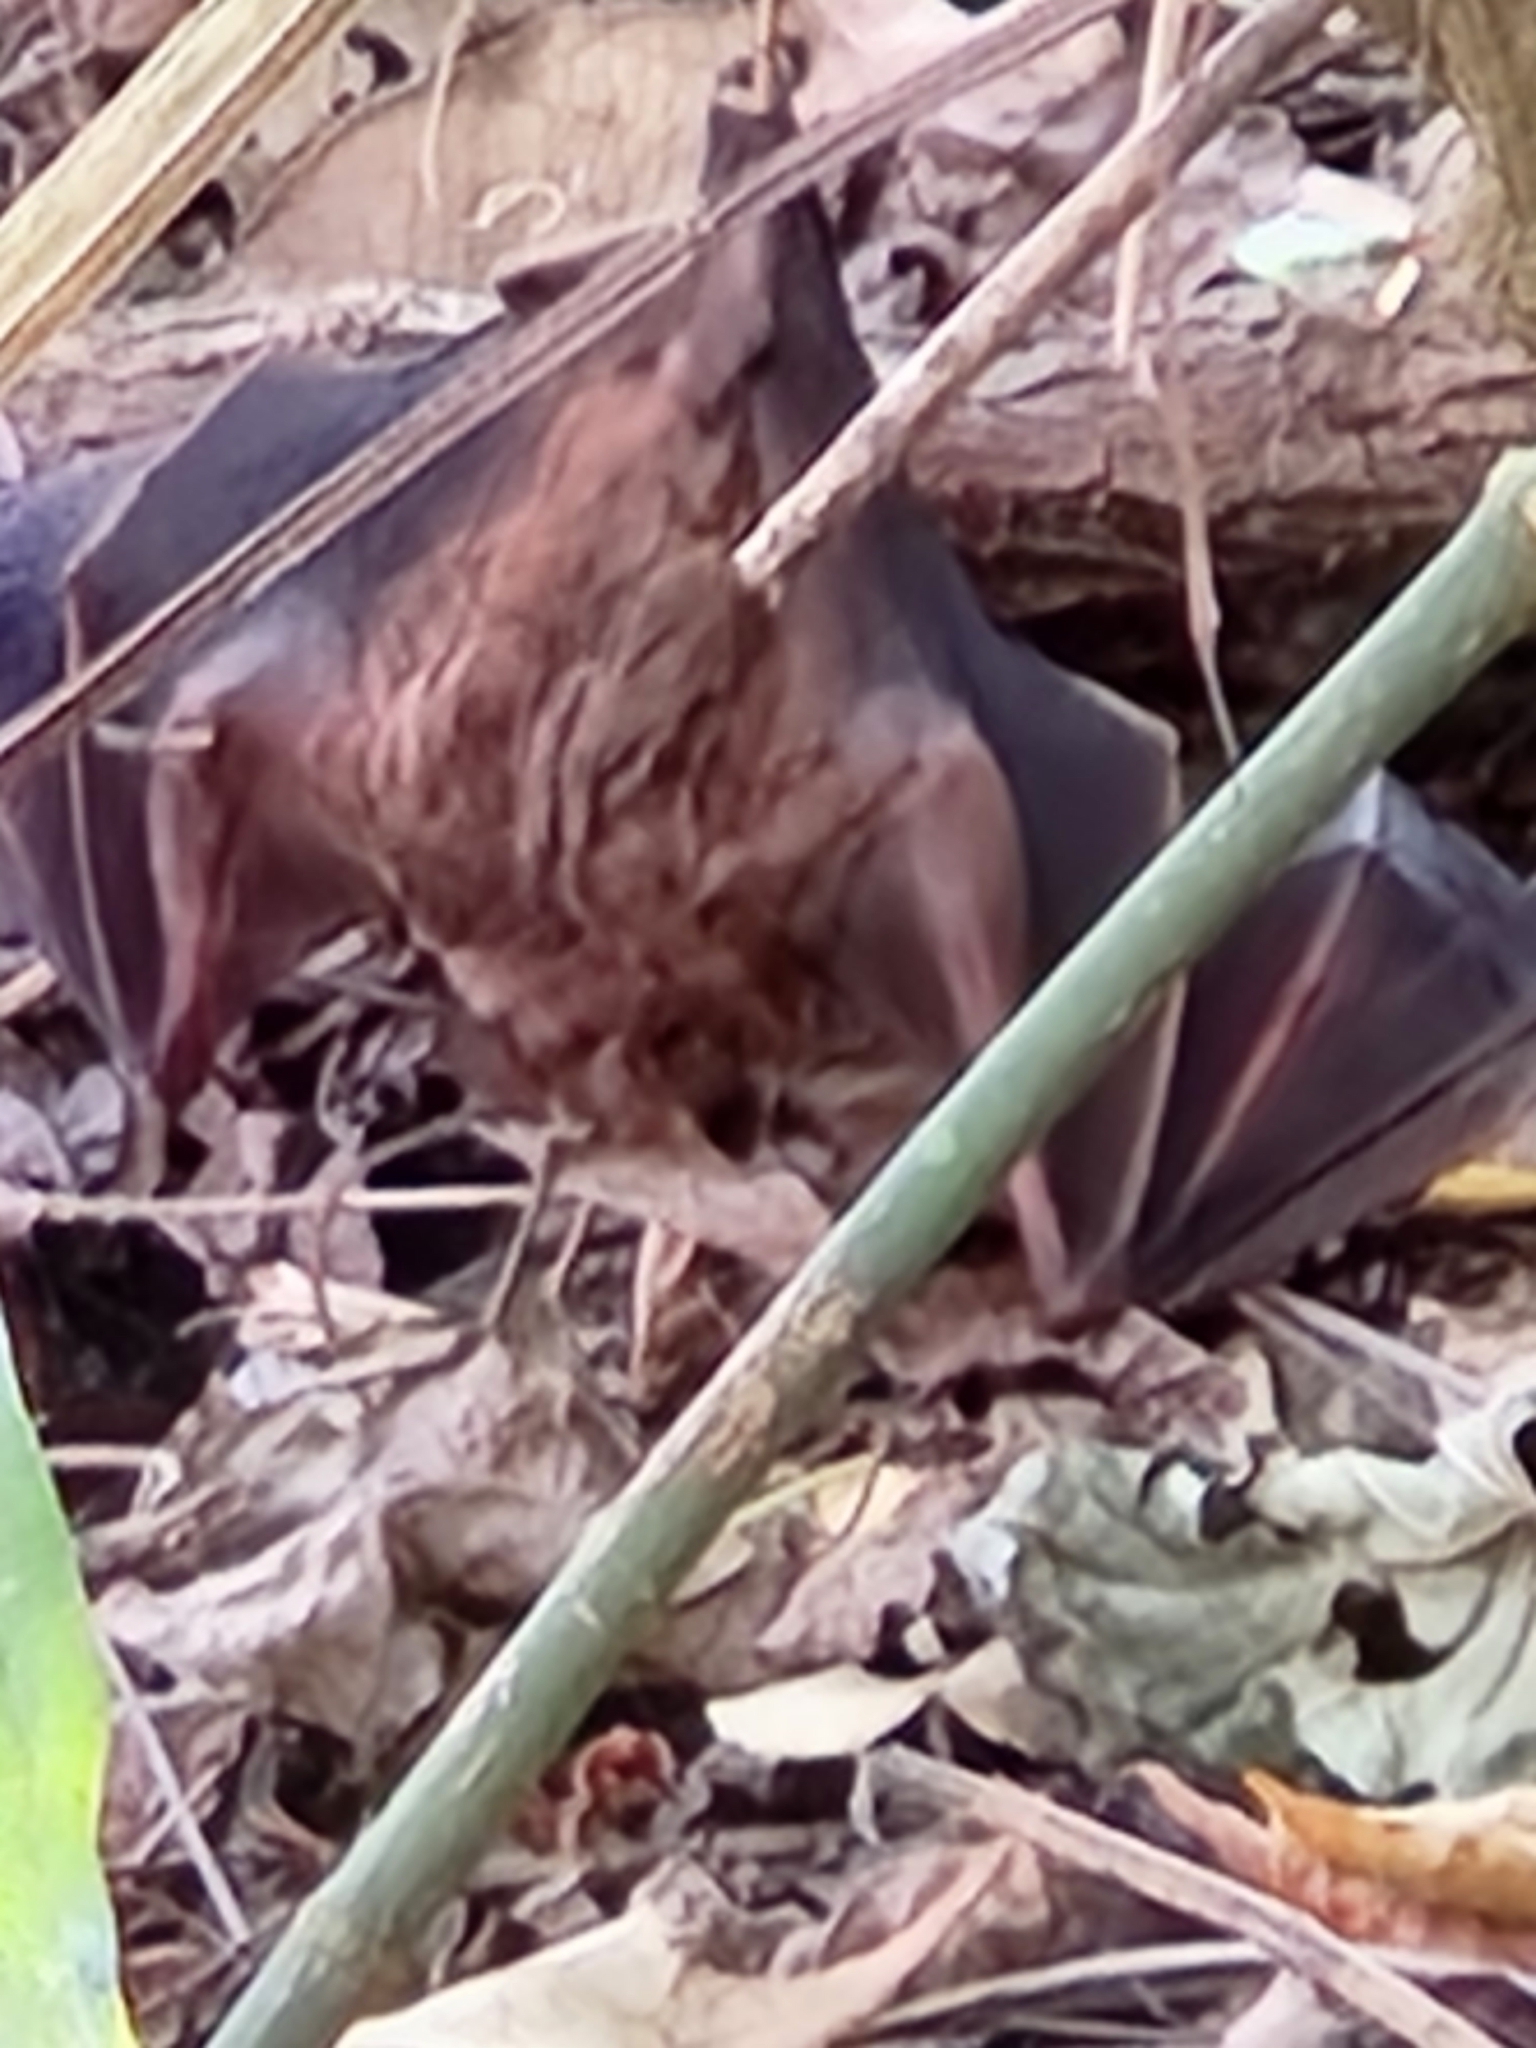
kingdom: Animalia
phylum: Chordata
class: Mammalia
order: Chiroptera
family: Phyllostomidae
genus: Artibeus
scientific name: Artibeus jamaicensis
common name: Jamaican fruit-eating bat
